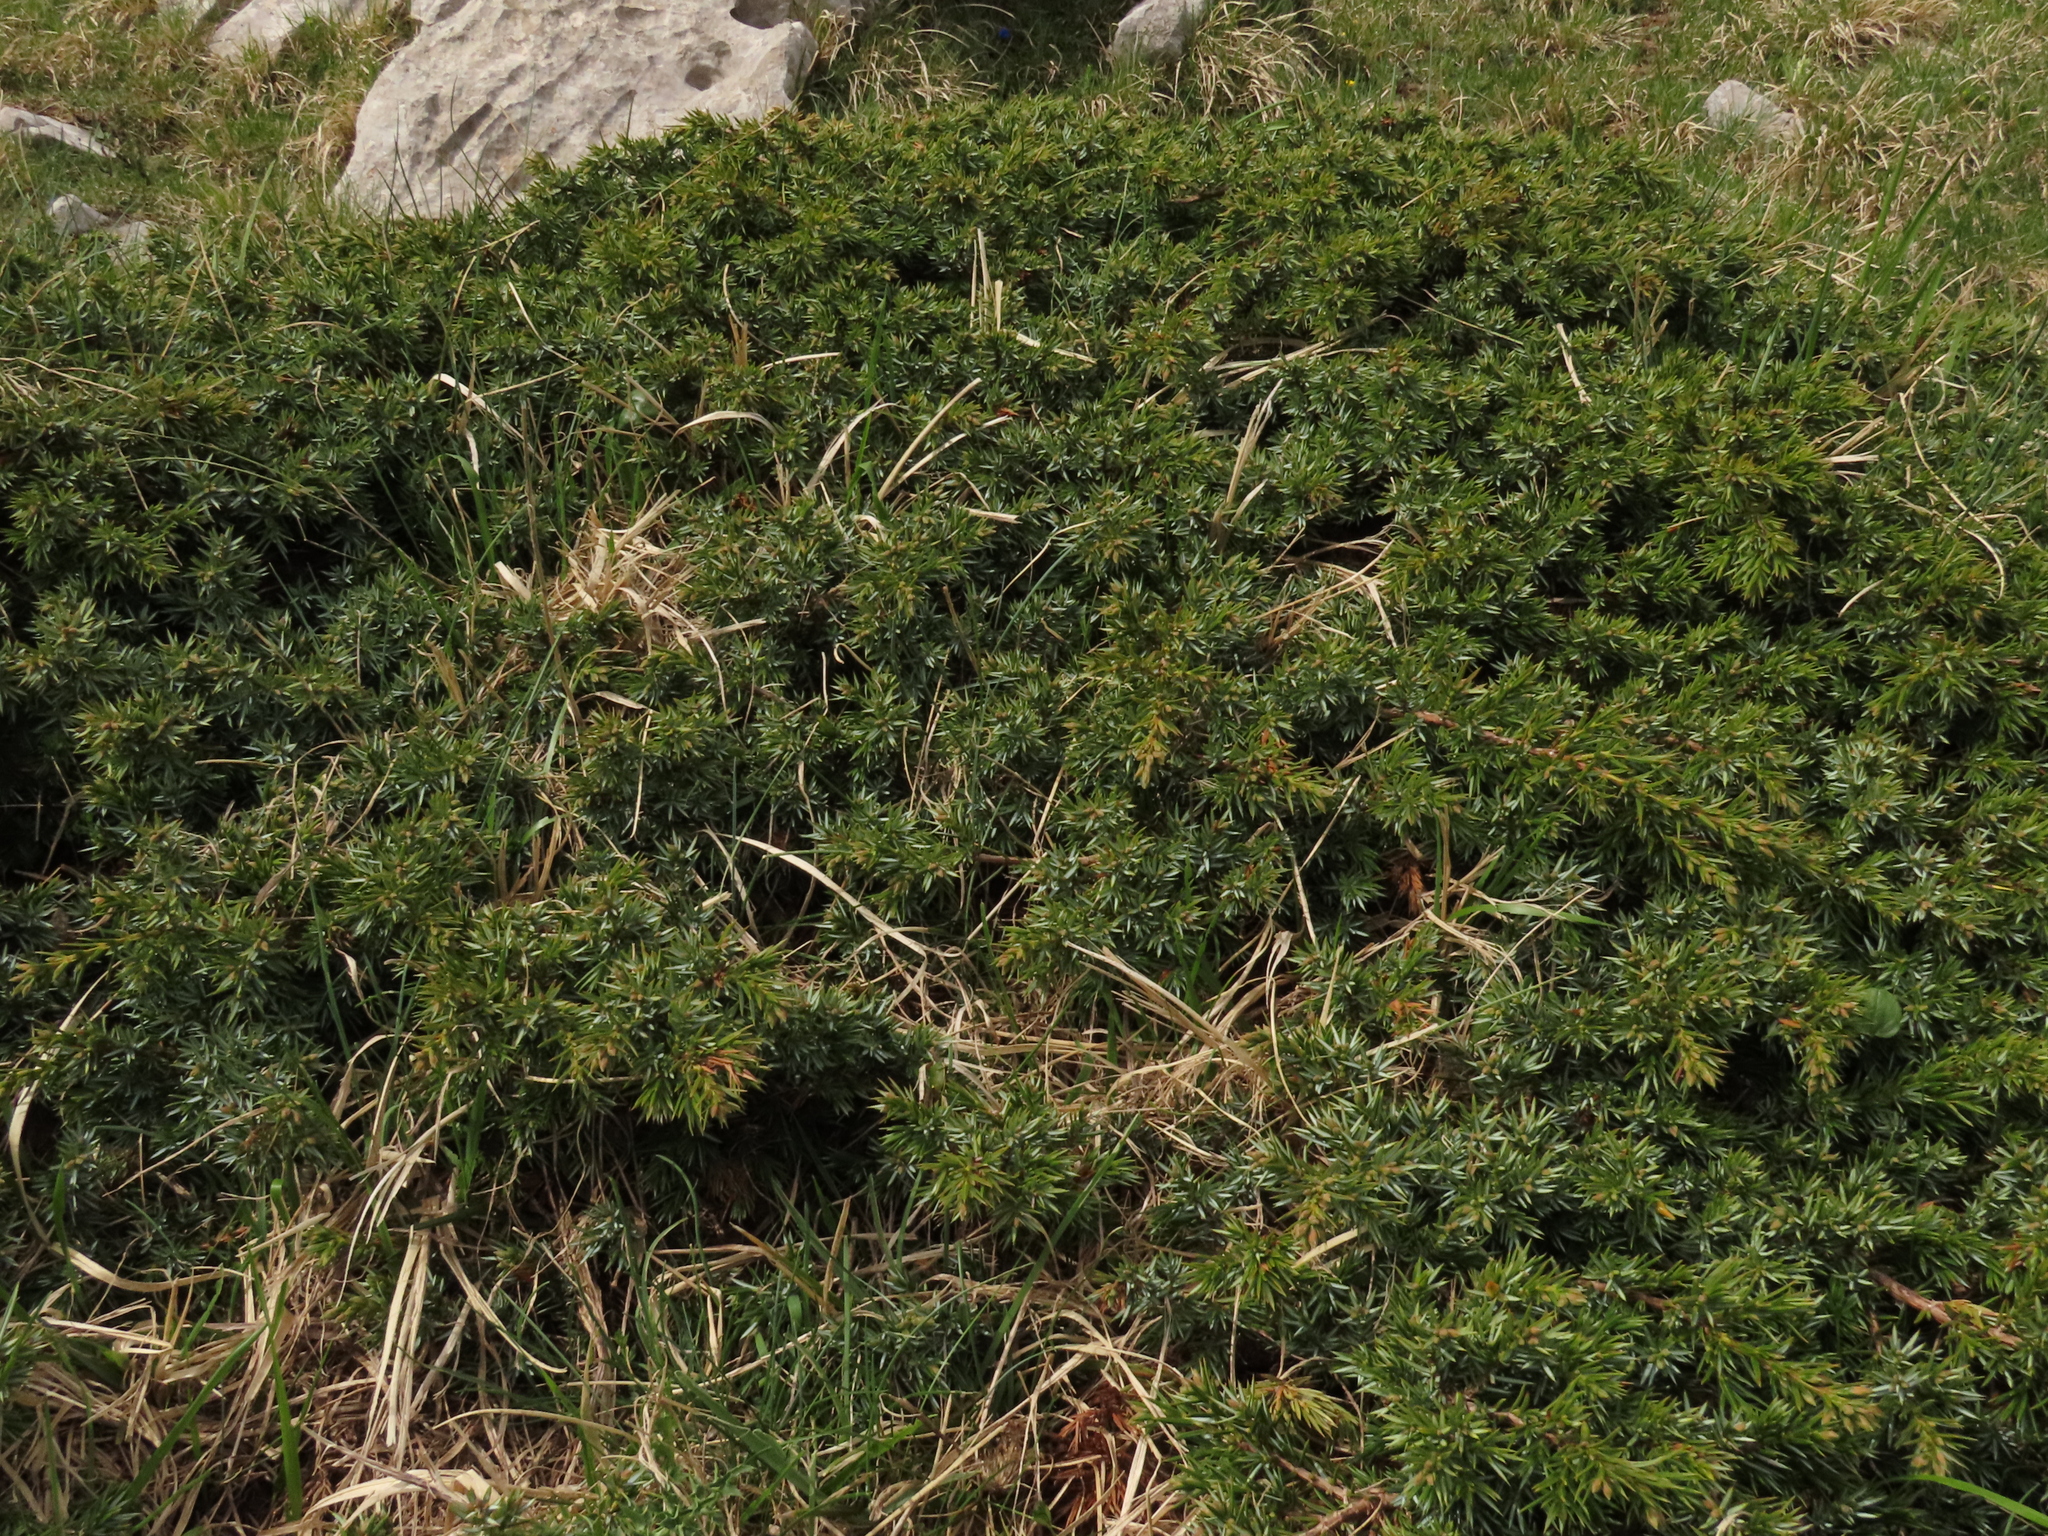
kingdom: Plantae
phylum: Tracheophyta
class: Pinopsida
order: Pinales
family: Cupressaceae
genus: Juniperus
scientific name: Juniperus communis
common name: Common juniper
